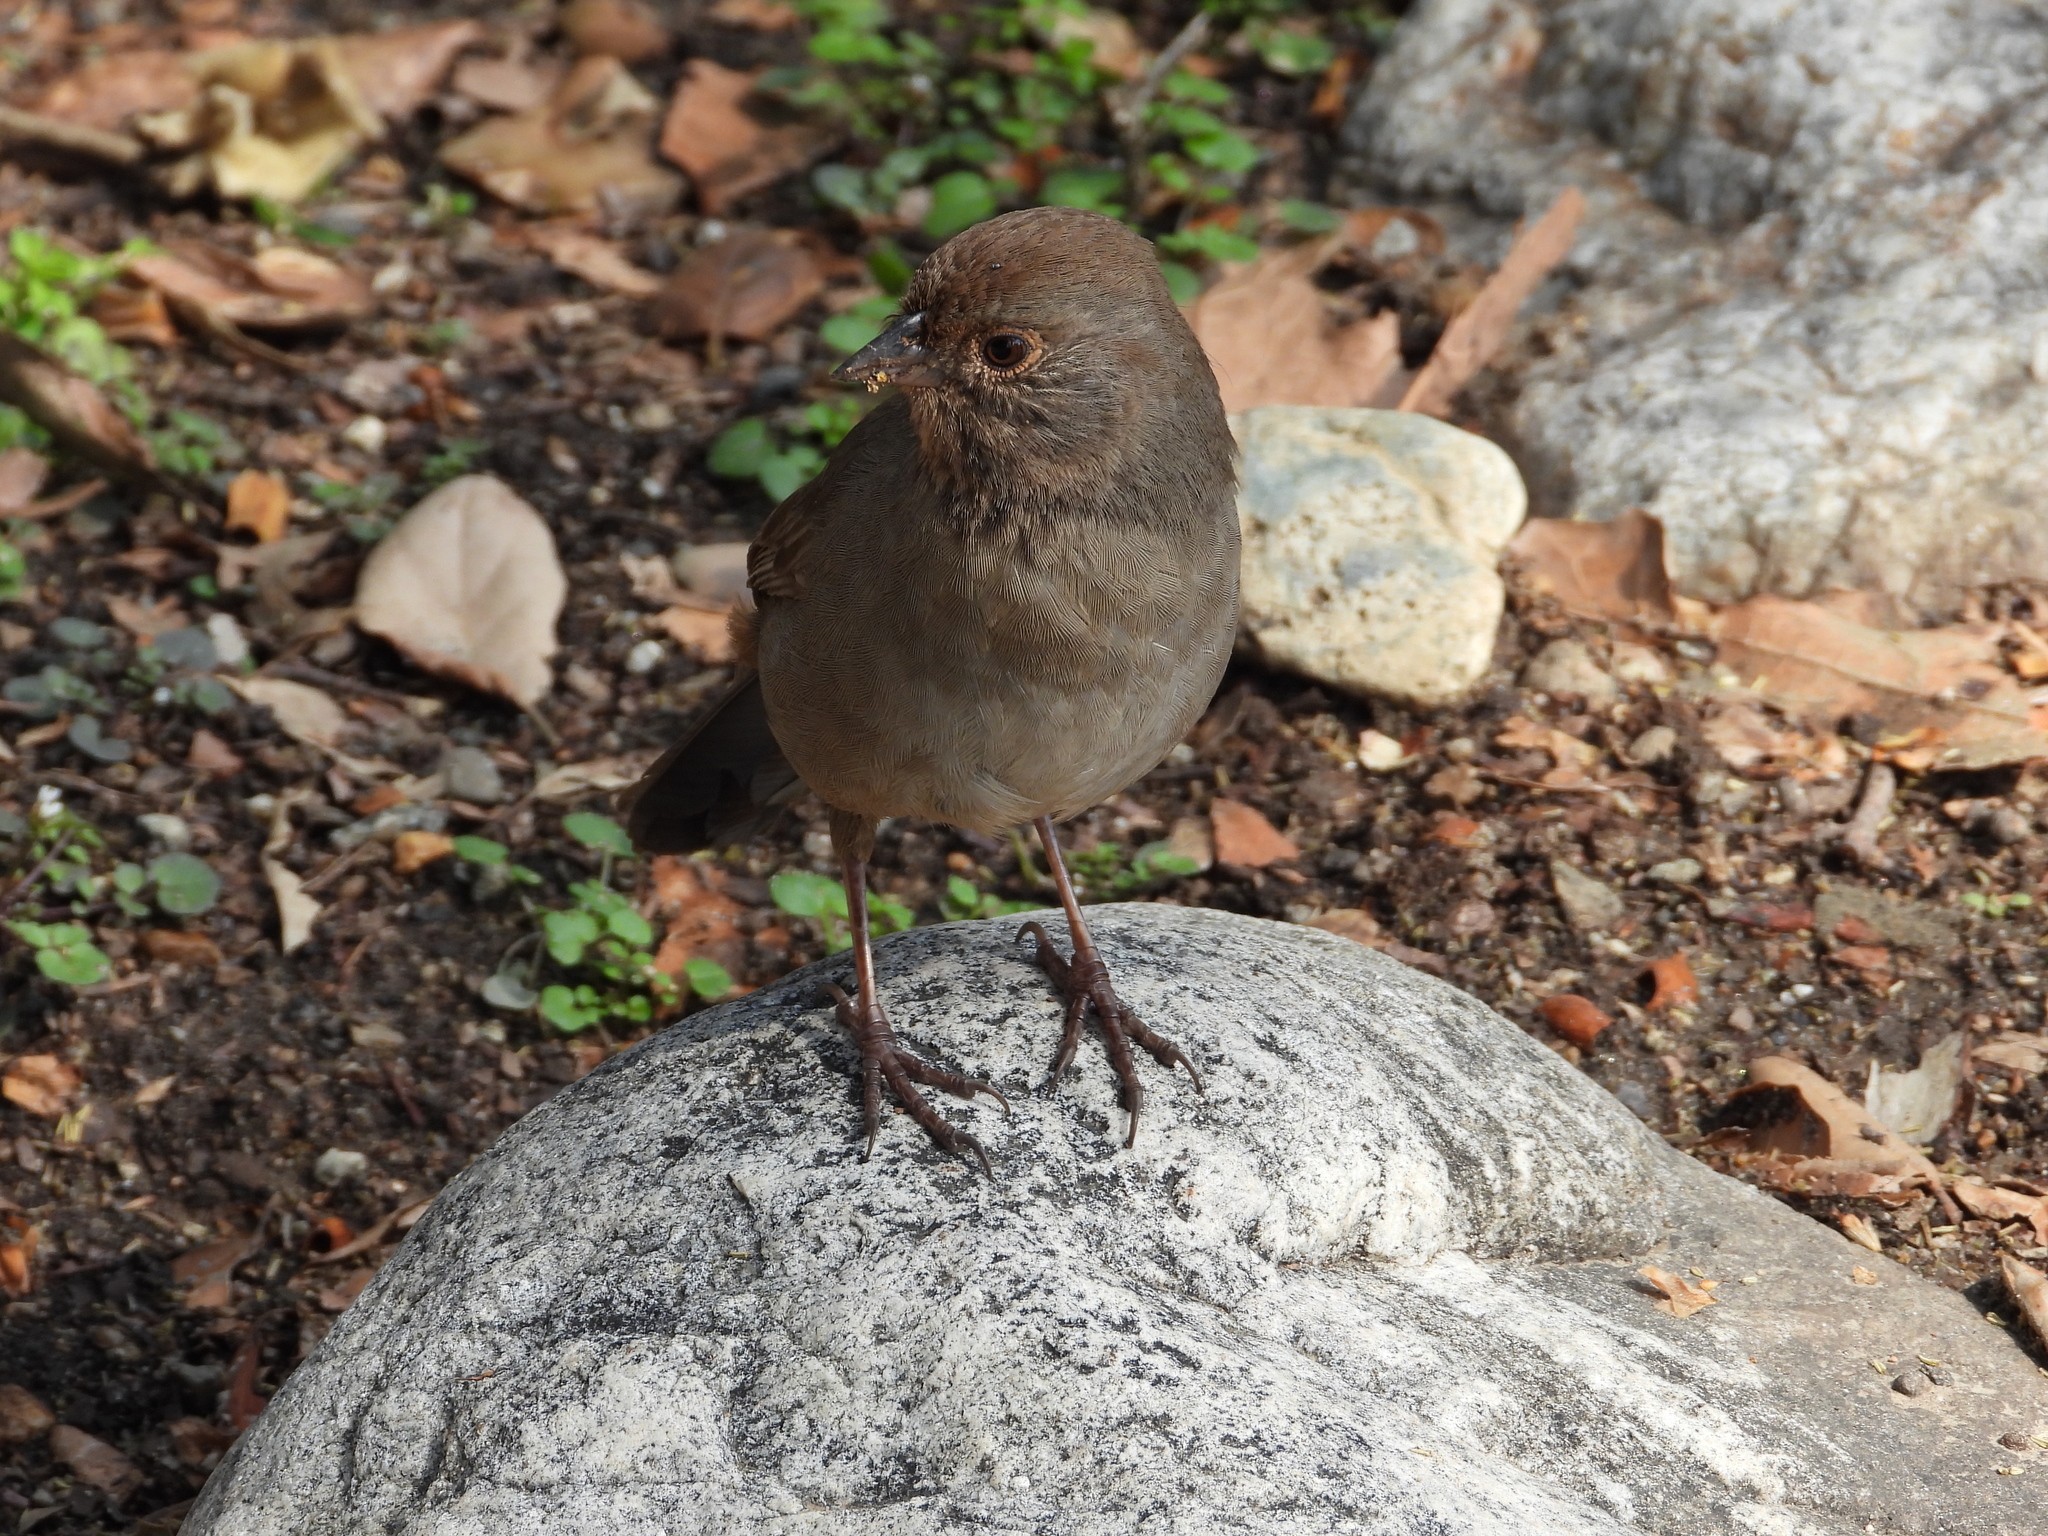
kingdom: Animalia
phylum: Chordata
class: Aves
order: Passeriformes
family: Passerellidae
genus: Melozone
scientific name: Melozone crissalis
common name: California towhee
